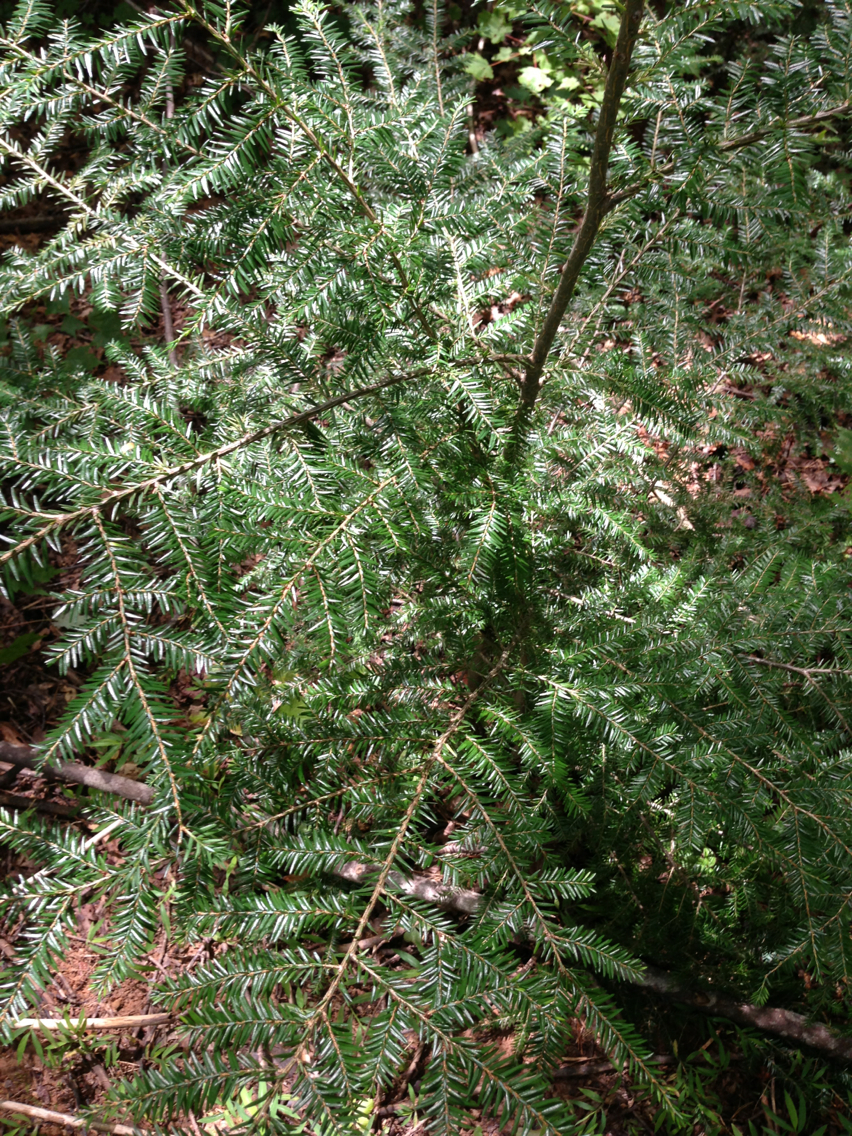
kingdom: Plantae
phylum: Tracheophyta
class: Pinopsida
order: Pinales
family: Pinaceae
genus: Tsuga
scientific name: Tsuga canadensis
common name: Eastern hemlock
